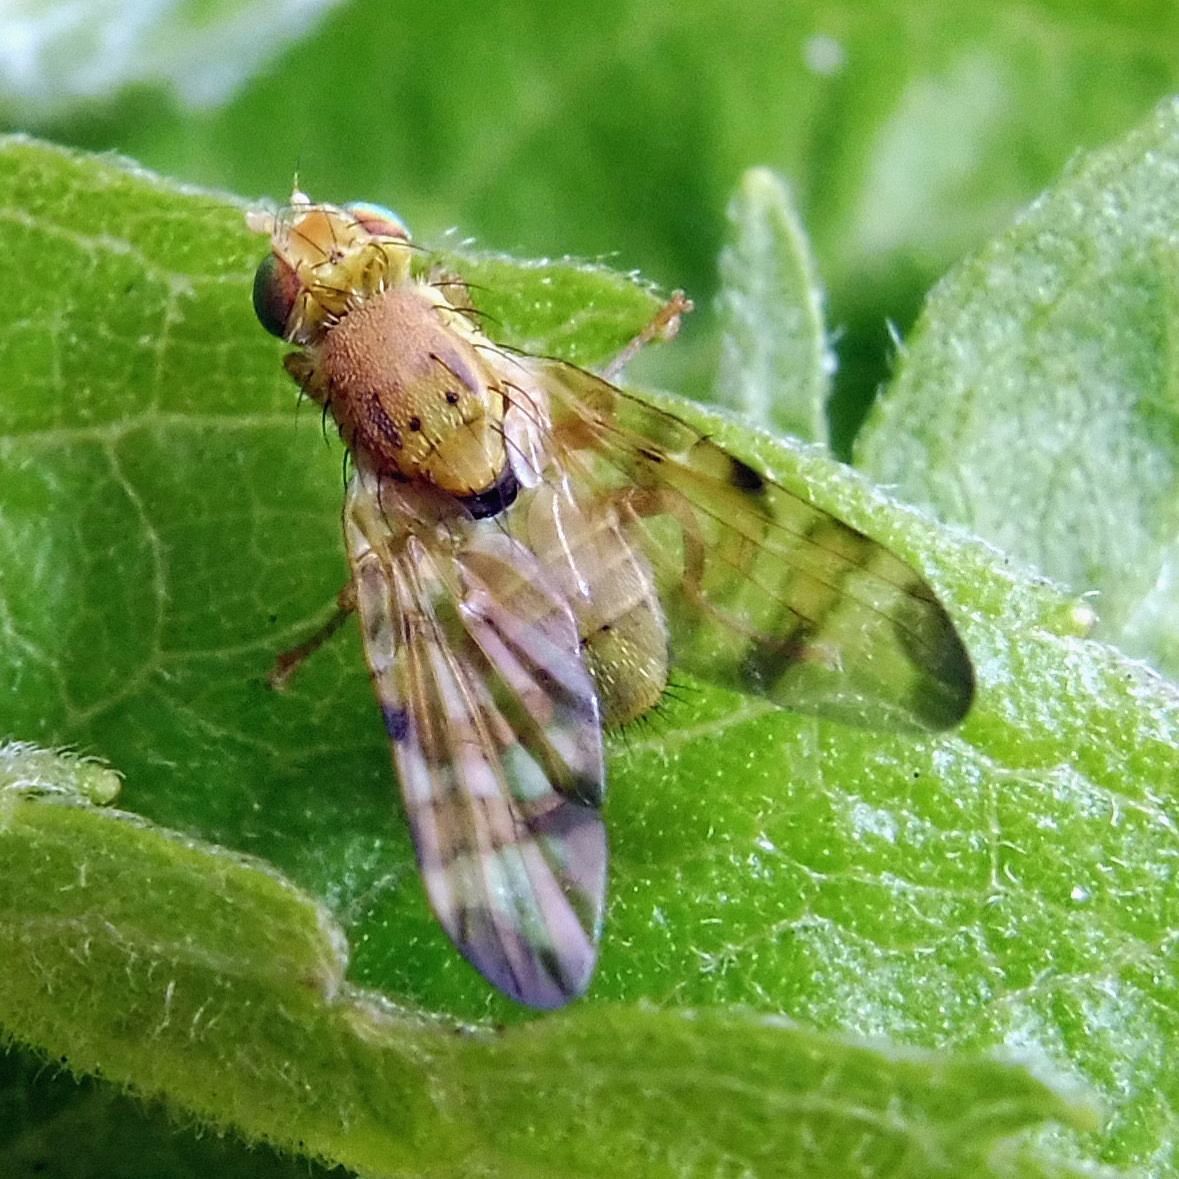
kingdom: Animalia
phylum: Arthropoda
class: Insecta
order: Diptera
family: Tephritidae
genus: Terellia
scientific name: Terellia tussilaginis
